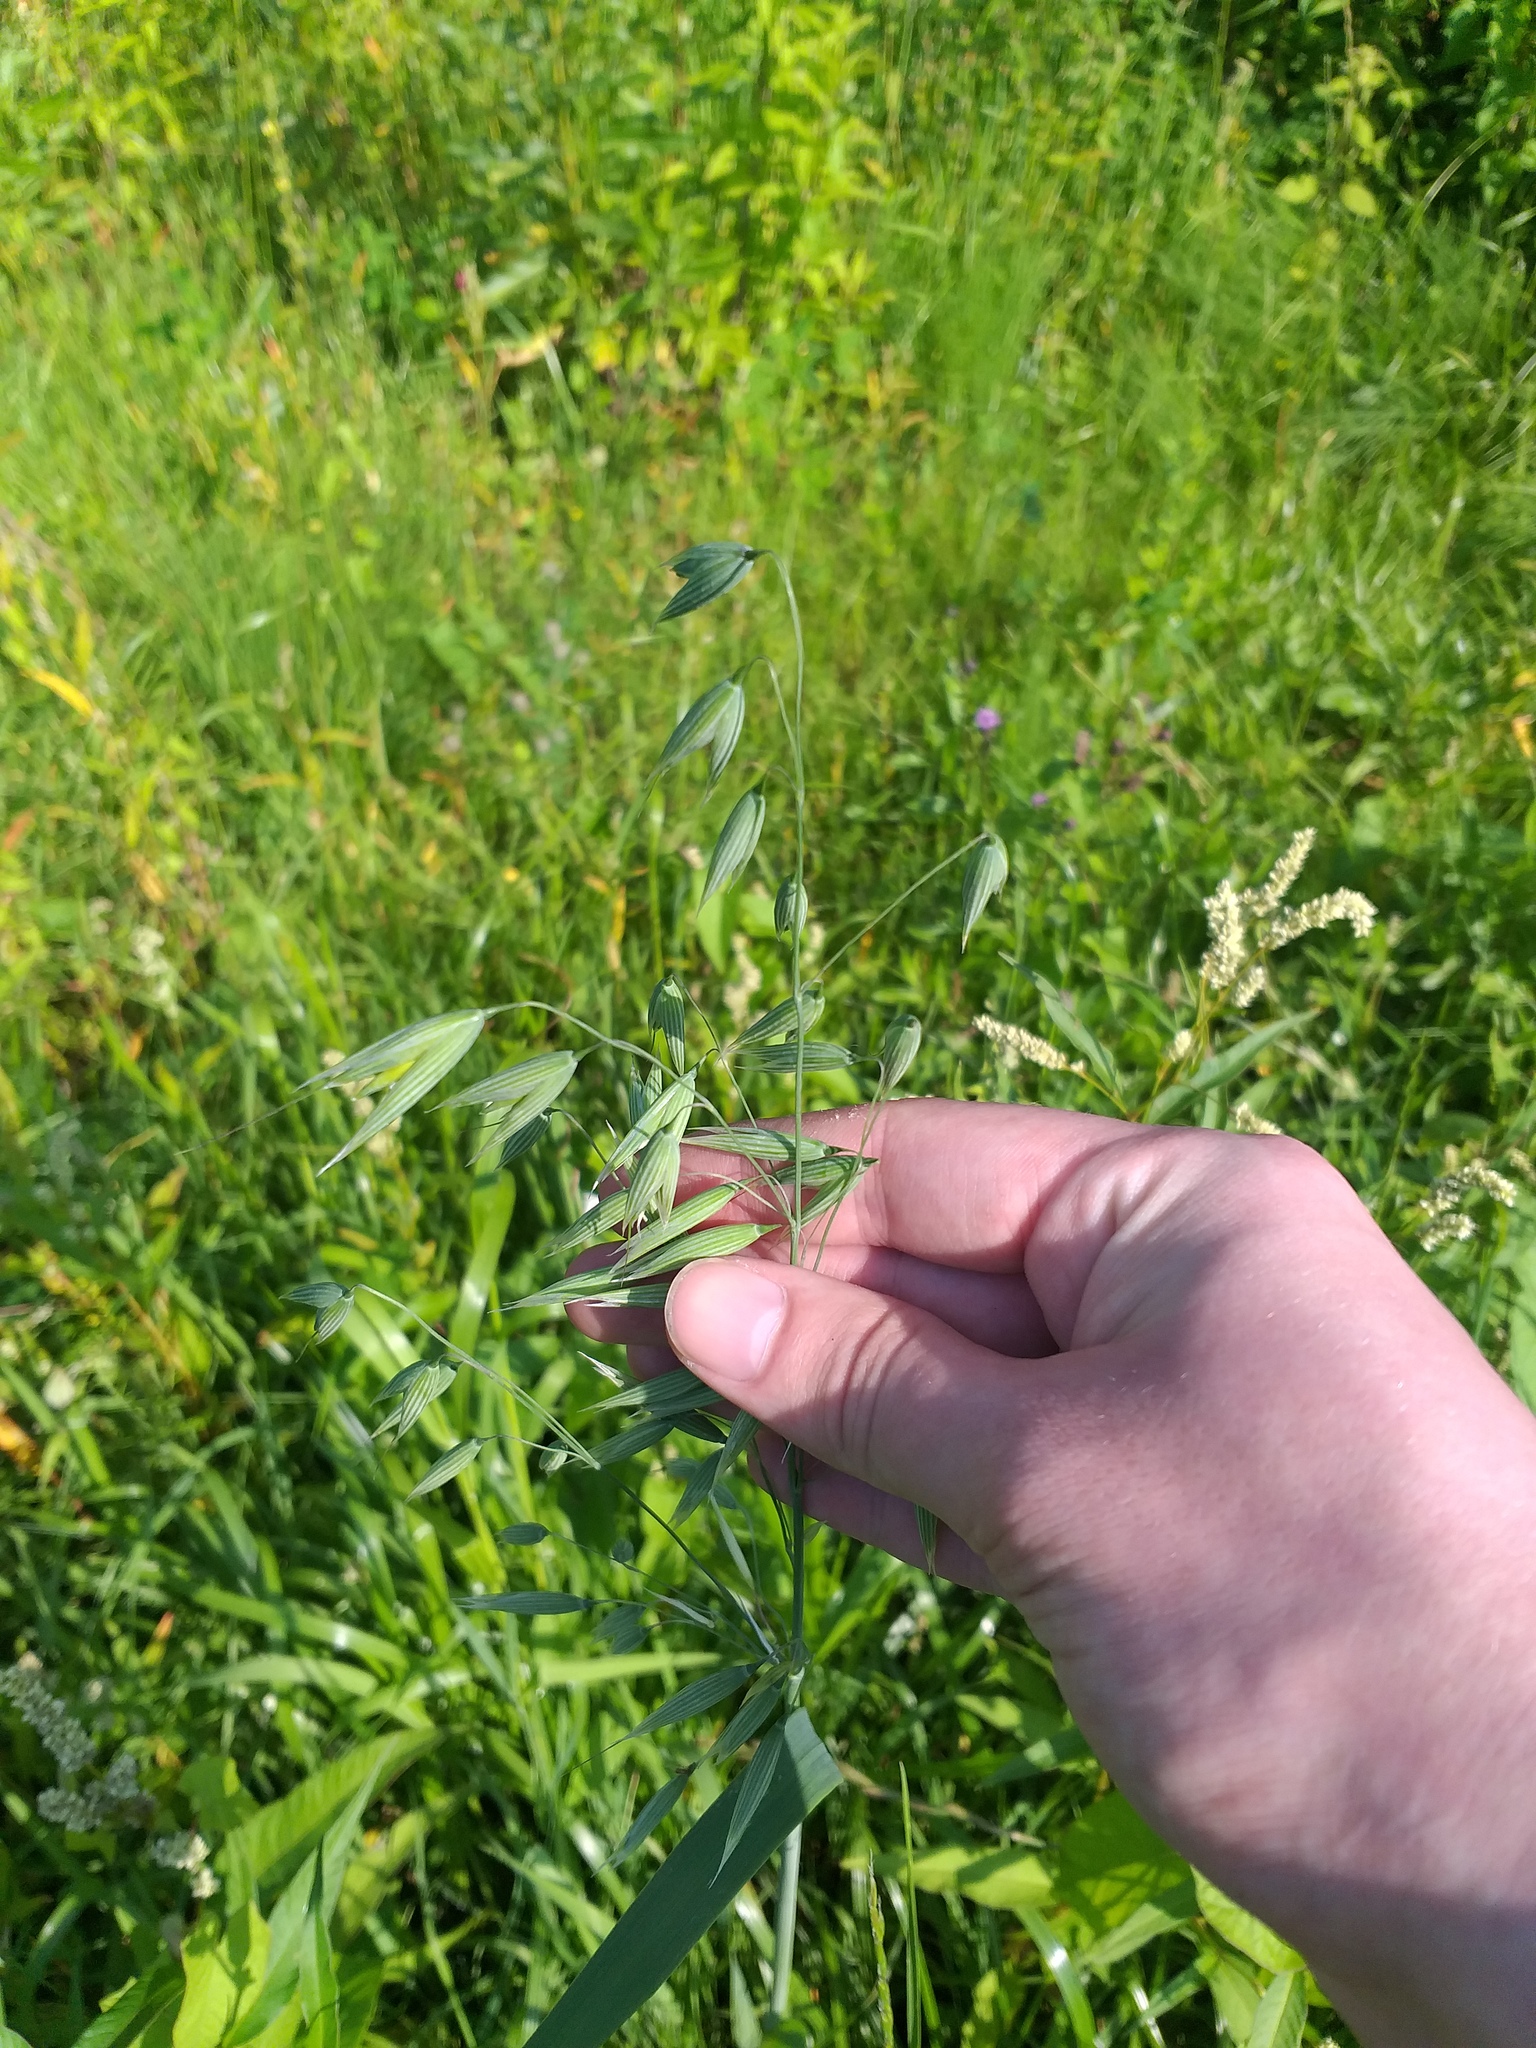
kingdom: Plantae
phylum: Tracheophyta
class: Liliopsida
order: Poales
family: Poaceae
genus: Avena
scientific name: Avena sativa
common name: Oat
